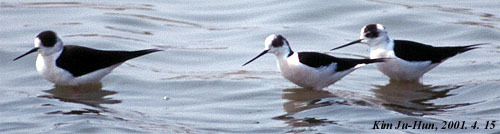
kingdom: Animalia
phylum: Chordata
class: Aves
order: Charadriiformes
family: Recurvirostridae
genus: Himantopus
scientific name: Himantopus himantopus
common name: Black-winged stilt
